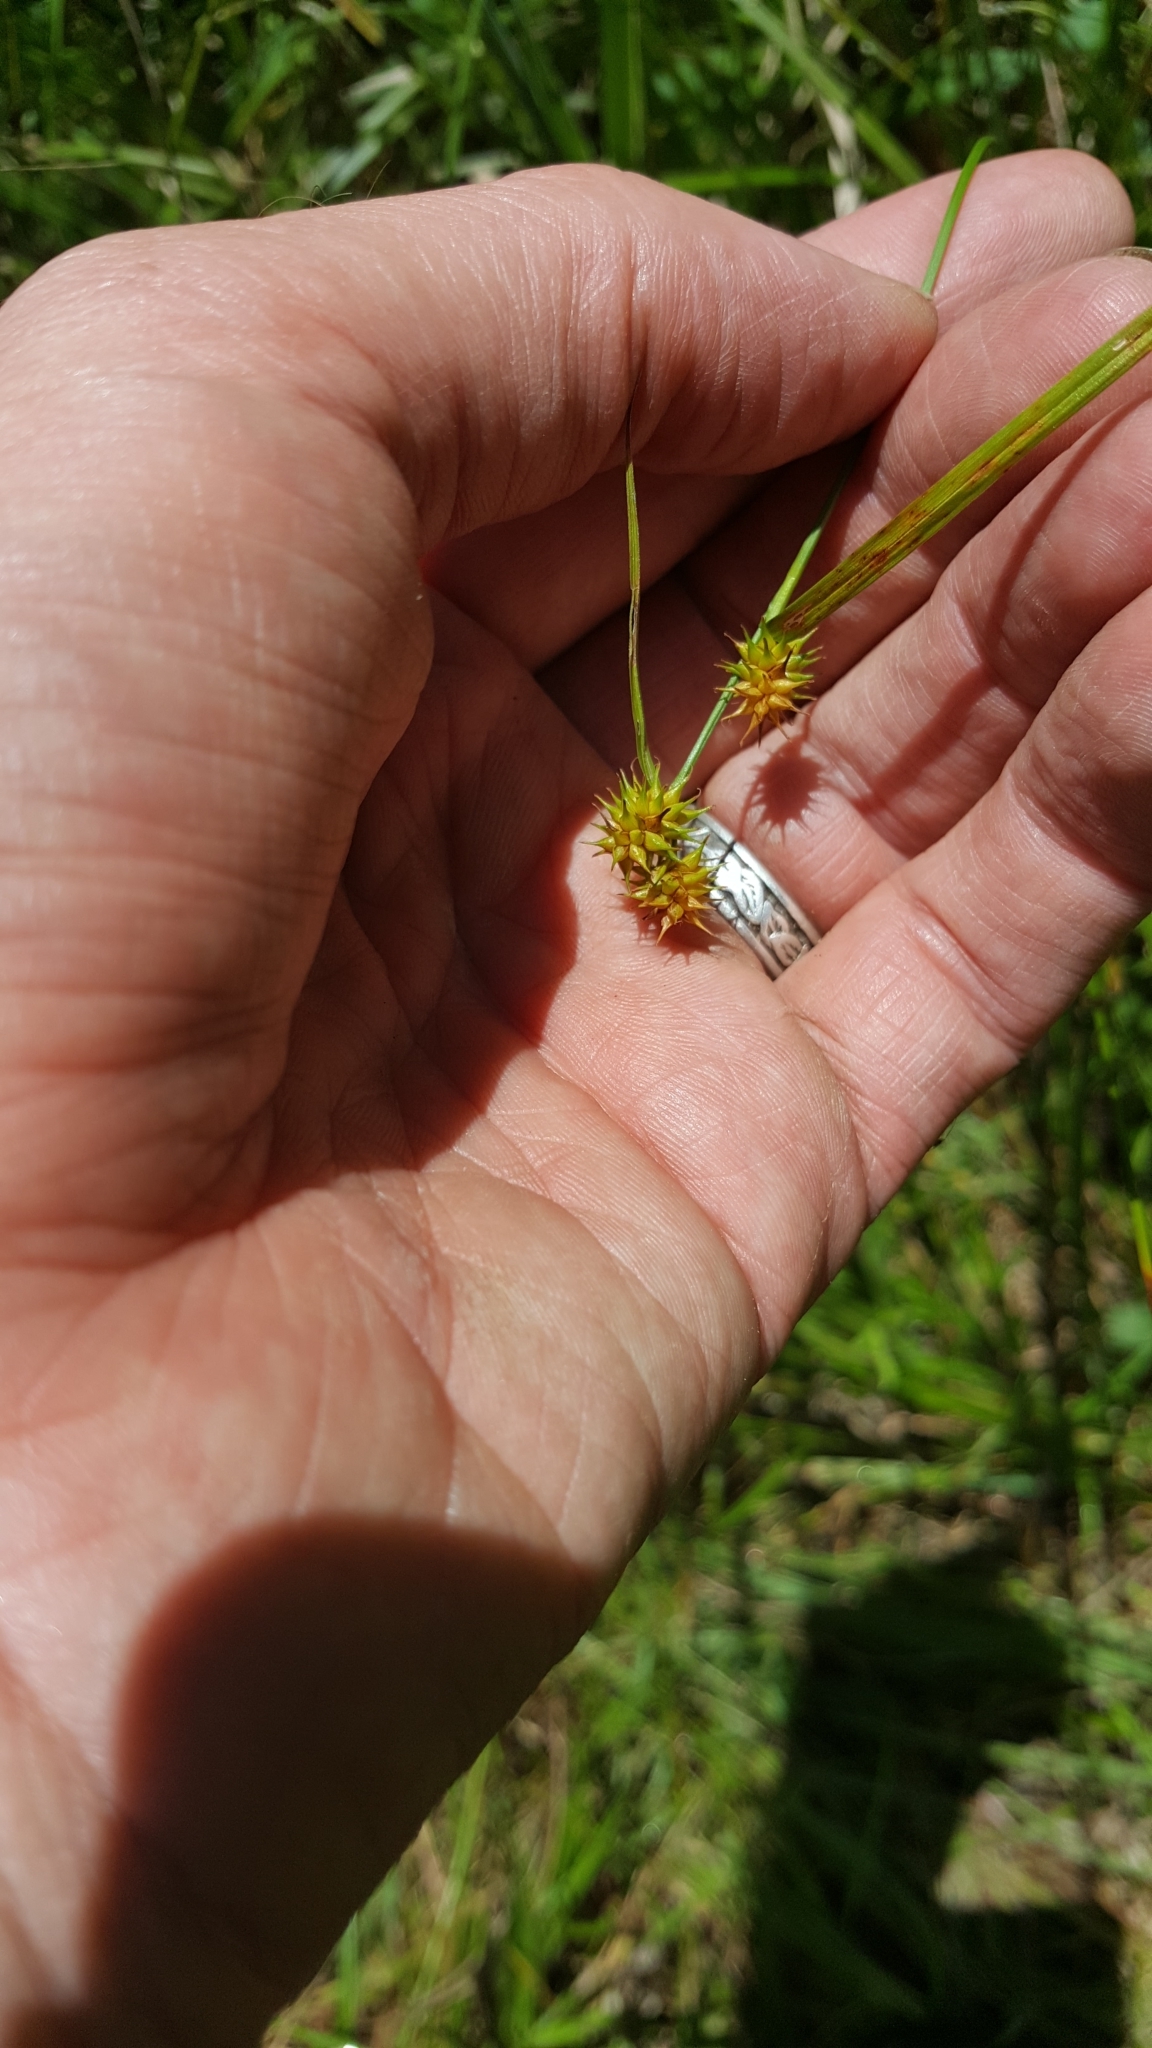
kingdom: Plantae
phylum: Tracheophyta
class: Liliopsida
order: Poales
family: Cyperaceae
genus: Carex
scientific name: Carex flava
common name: Large yellow-sedge
